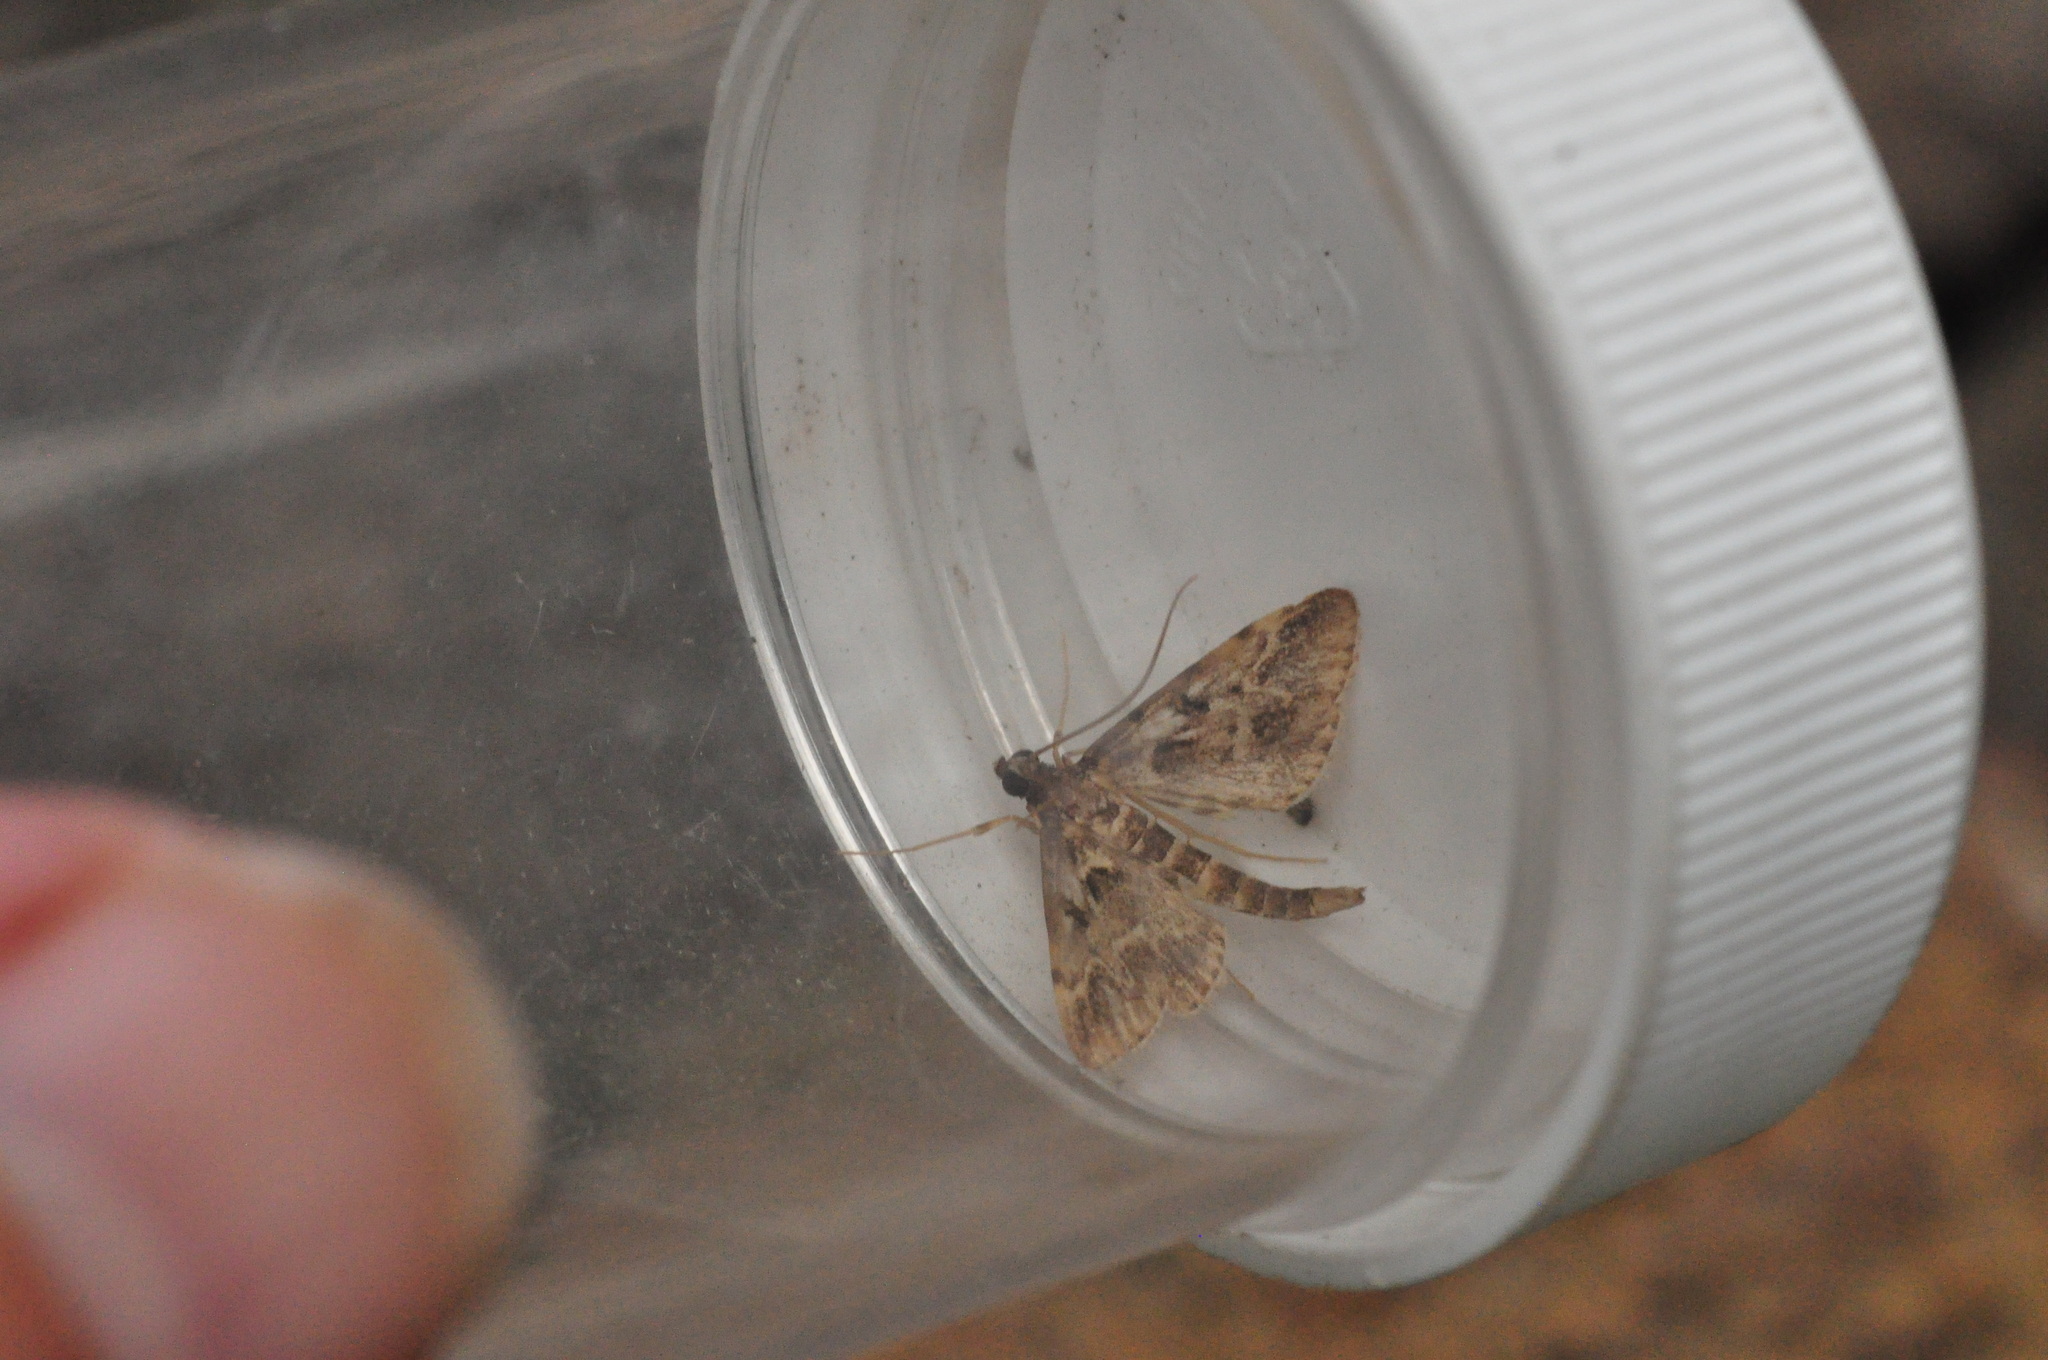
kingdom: Animalia
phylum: Arthropoda
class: Insecta
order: Lepidoptera
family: Crambidae
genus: Duponchelia
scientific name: Duponchelia fovealis
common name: Crambid moth
